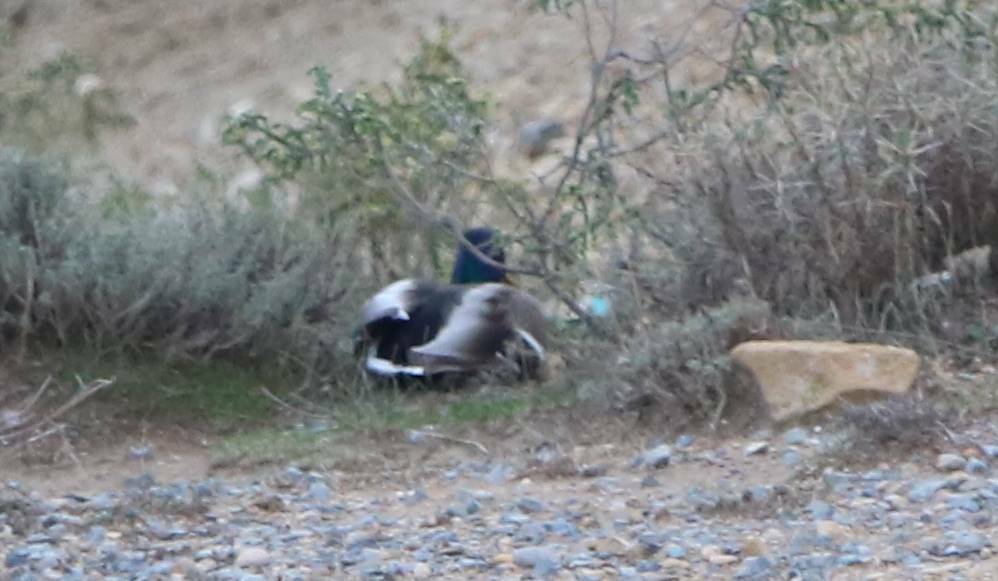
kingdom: Animalia
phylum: Chordata
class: Aves
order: Anseriformes
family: Anatidae
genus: Anas
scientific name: Anas platyrhynchos
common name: Mallard
